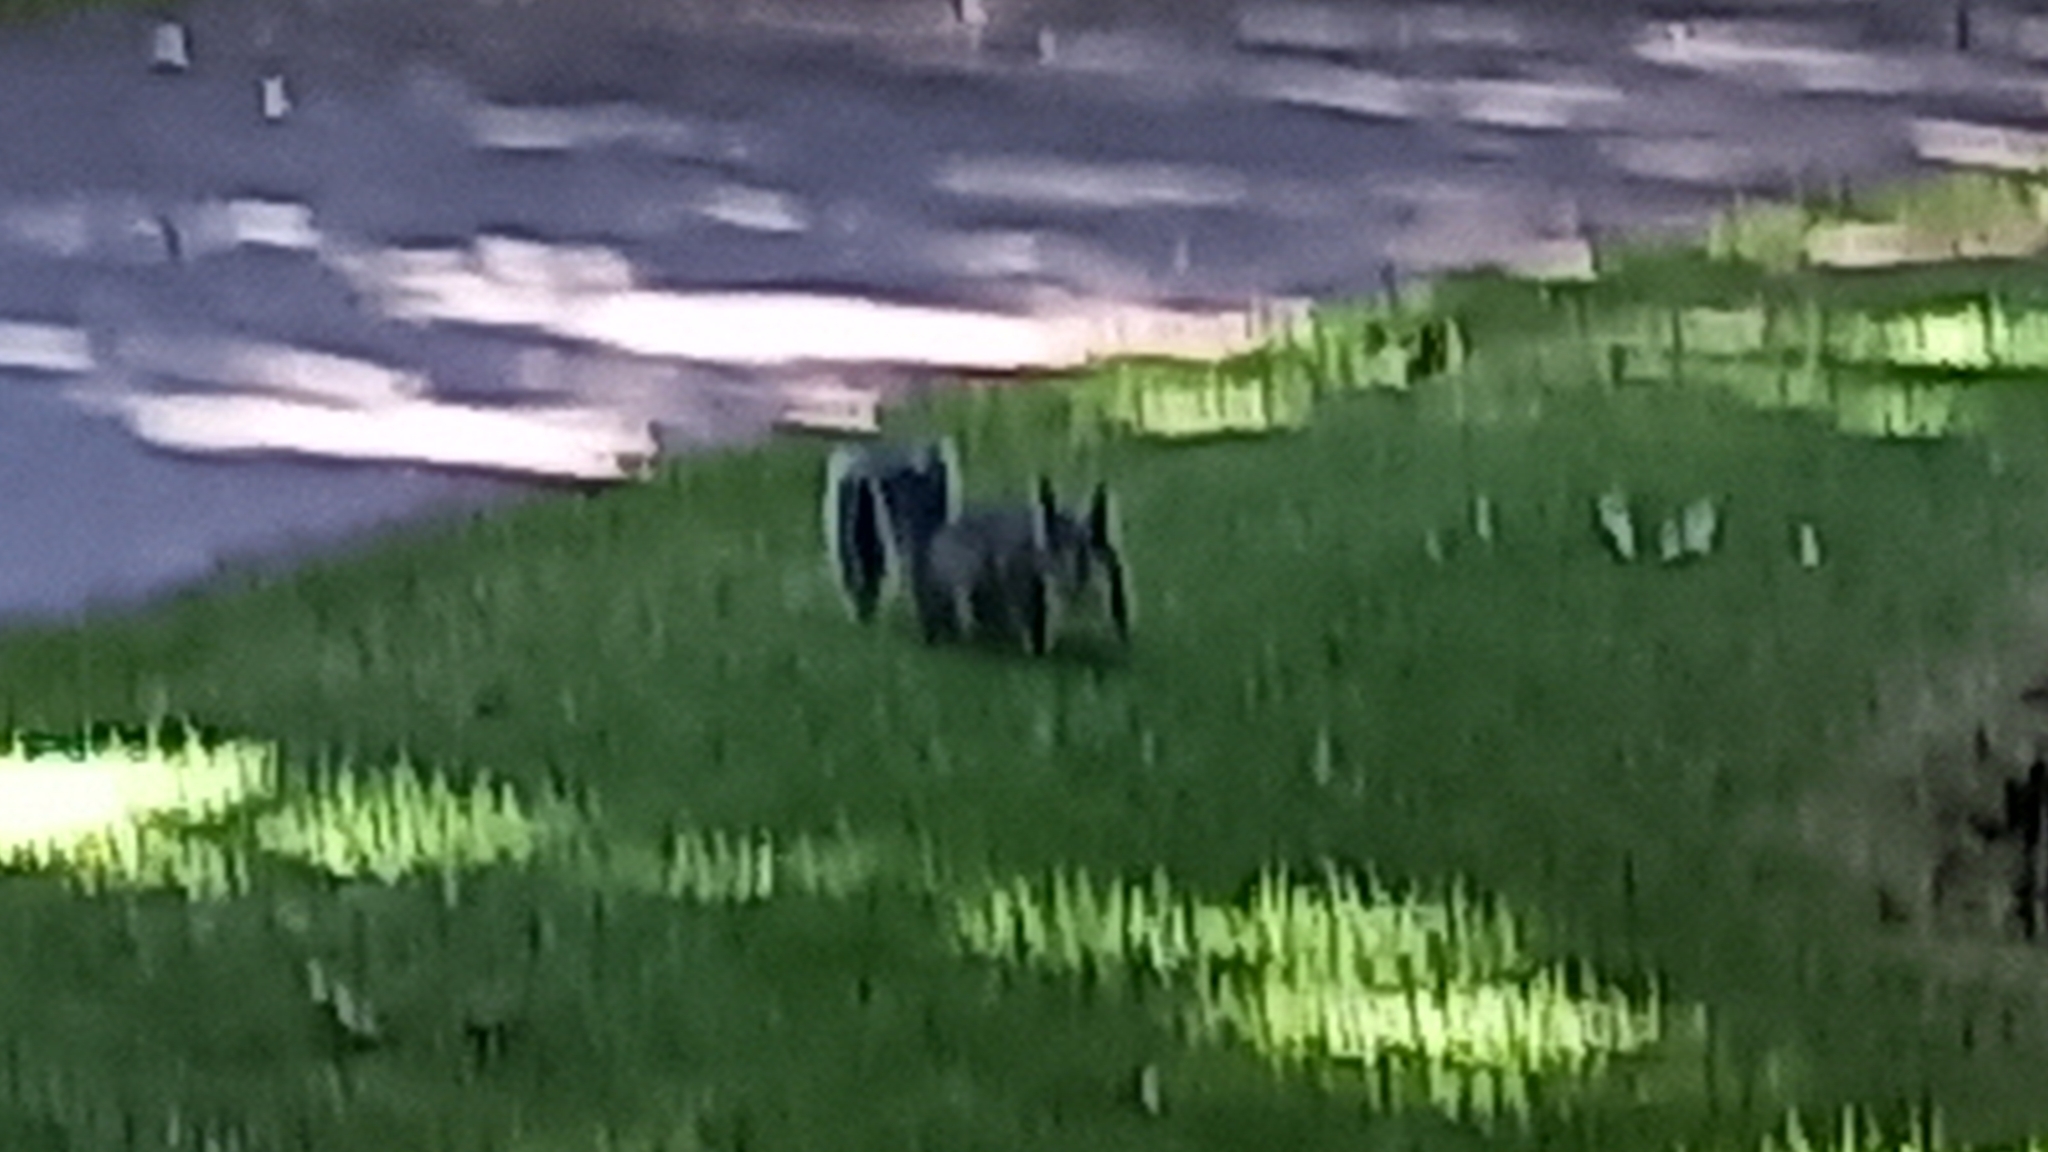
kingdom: Animalia
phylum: Chordata
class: Mammalia
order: Rodentia
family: Sciuridae
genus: Sciurus
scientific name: Sciurus carolinensis
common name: Eastern gray squirrel
